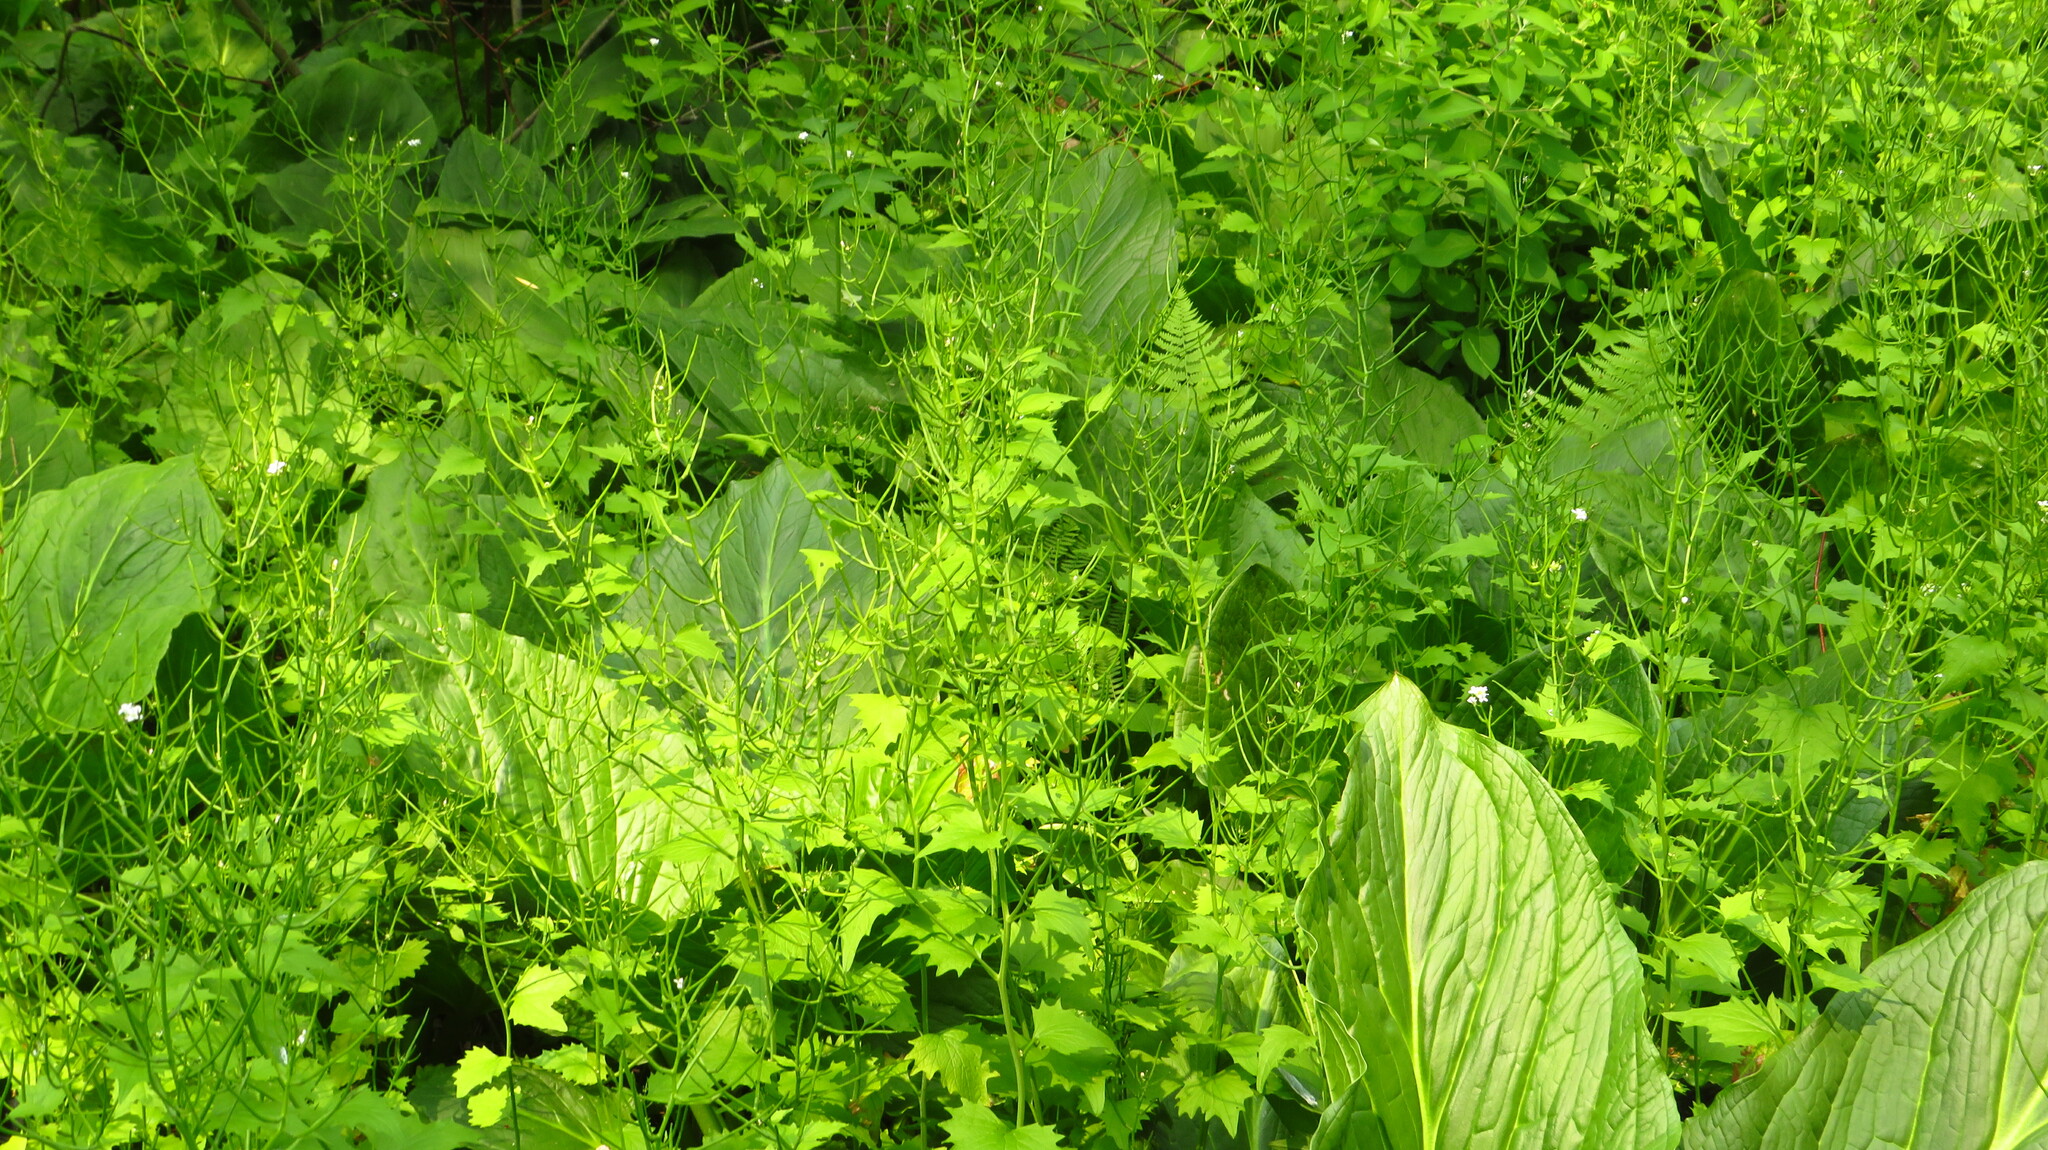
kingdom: Plantae
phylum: Tracheophyta
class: Magnoliopsida
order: Brassicales
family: Brassicaceae
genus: Alliaria
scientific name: Alliaria petiolata
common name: Garlic mustard
